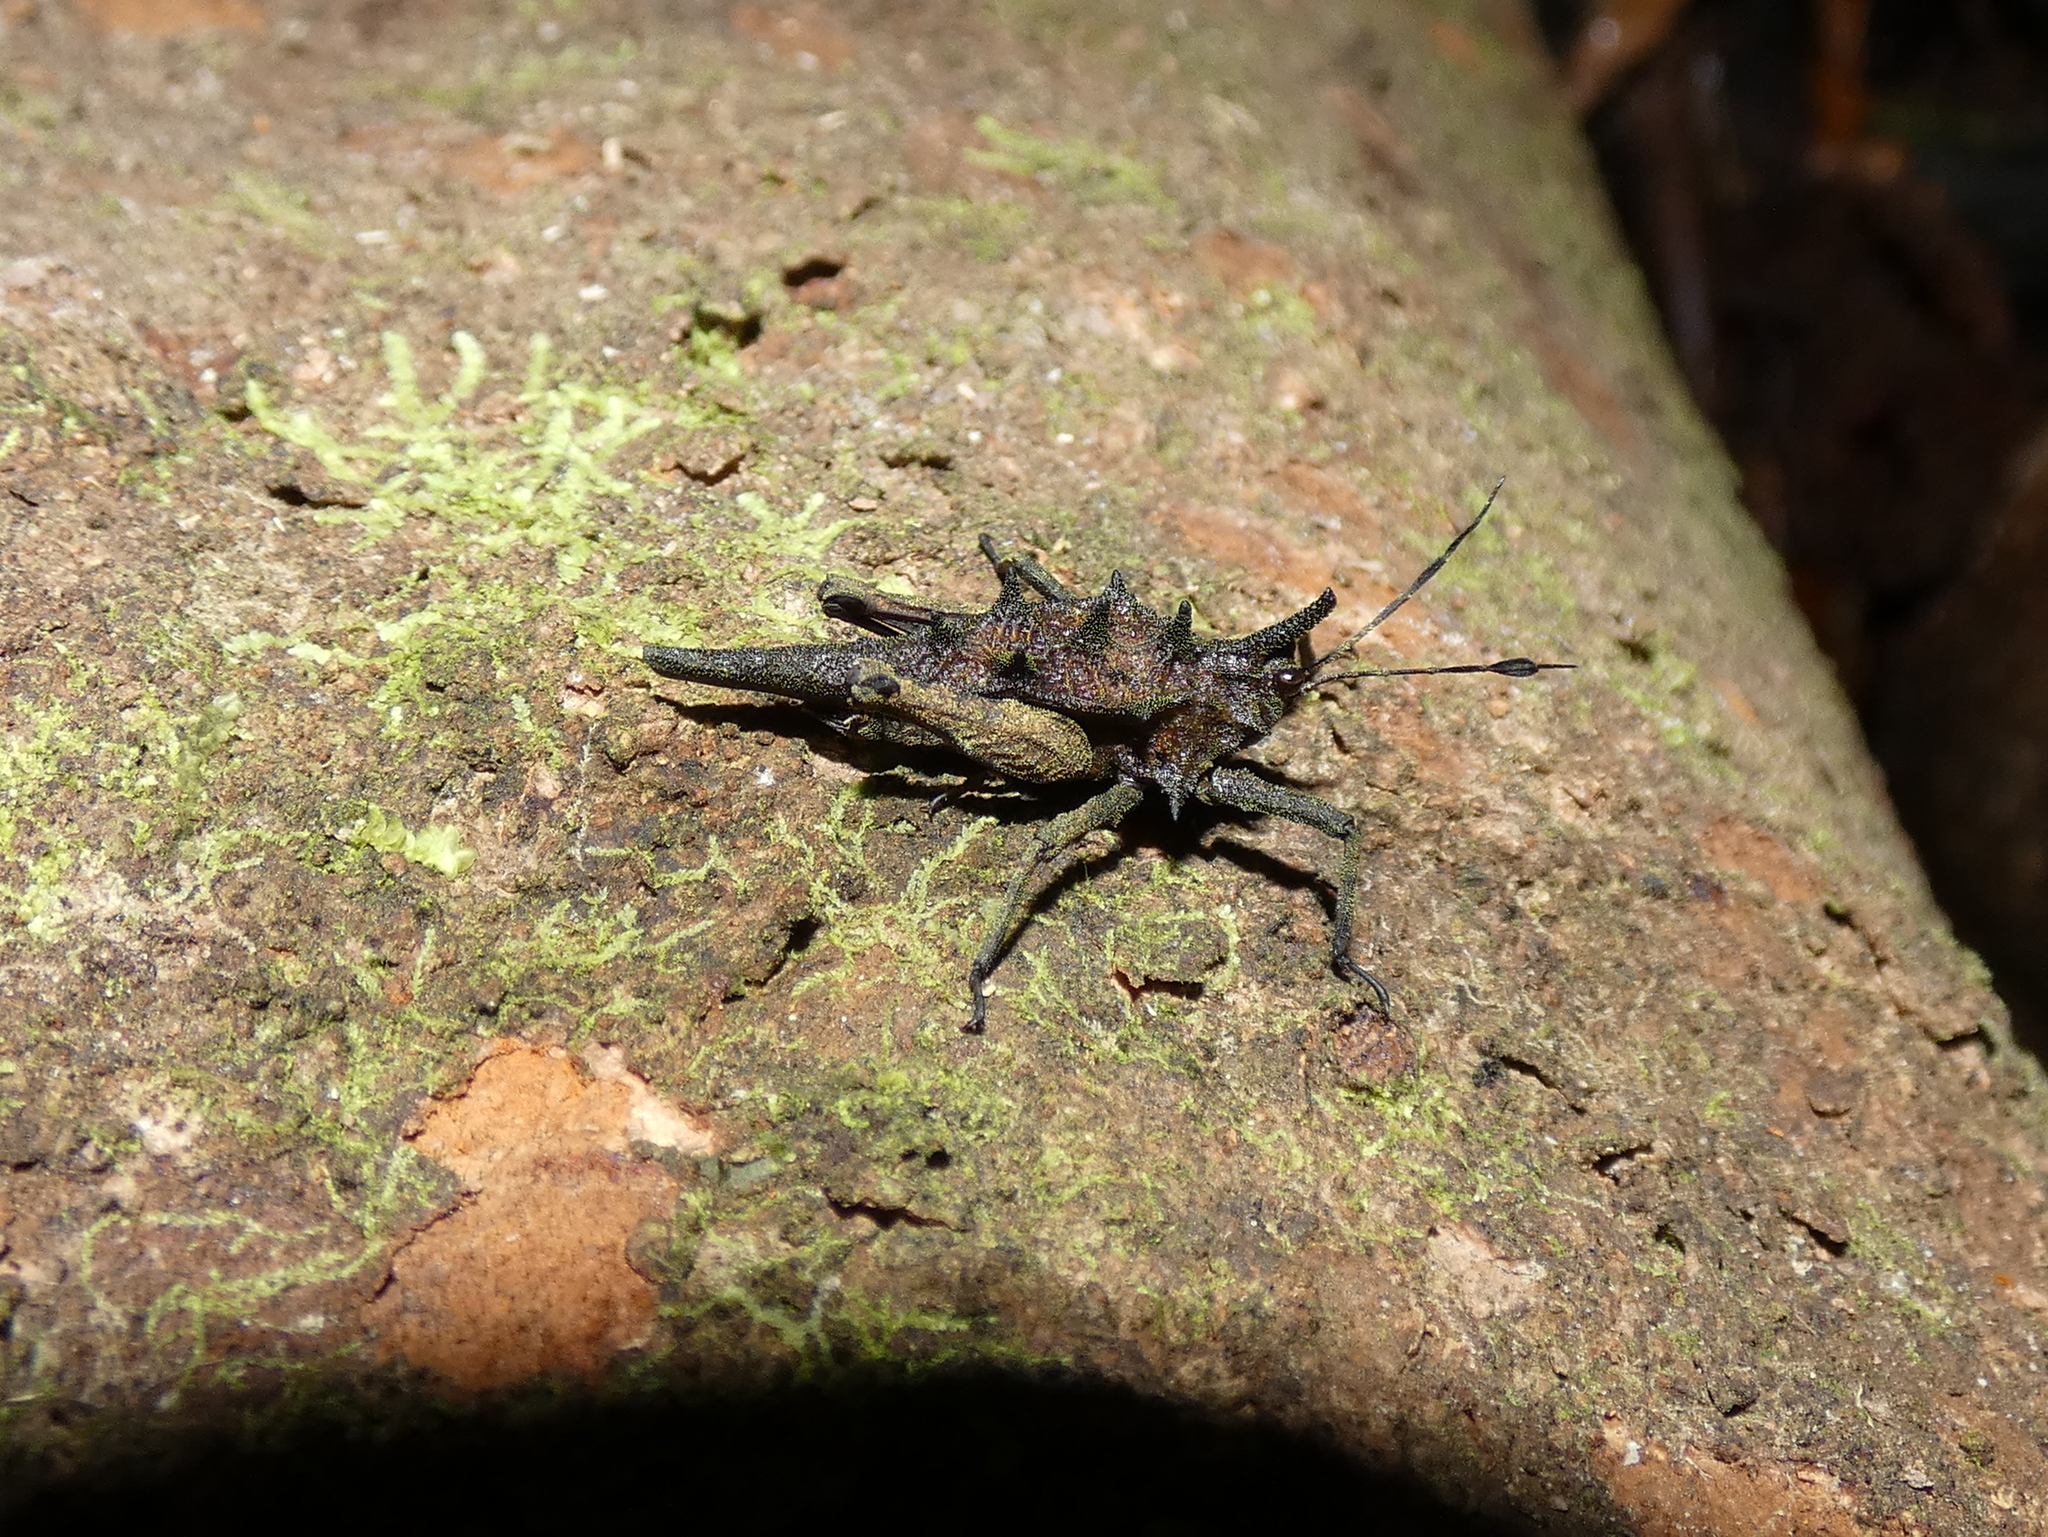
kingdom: Animalia
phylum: Arthropoda
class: Insecta
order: Orthoptera
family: Tetrigidae
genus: Discotettix
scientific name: Discotettix belzebuth
